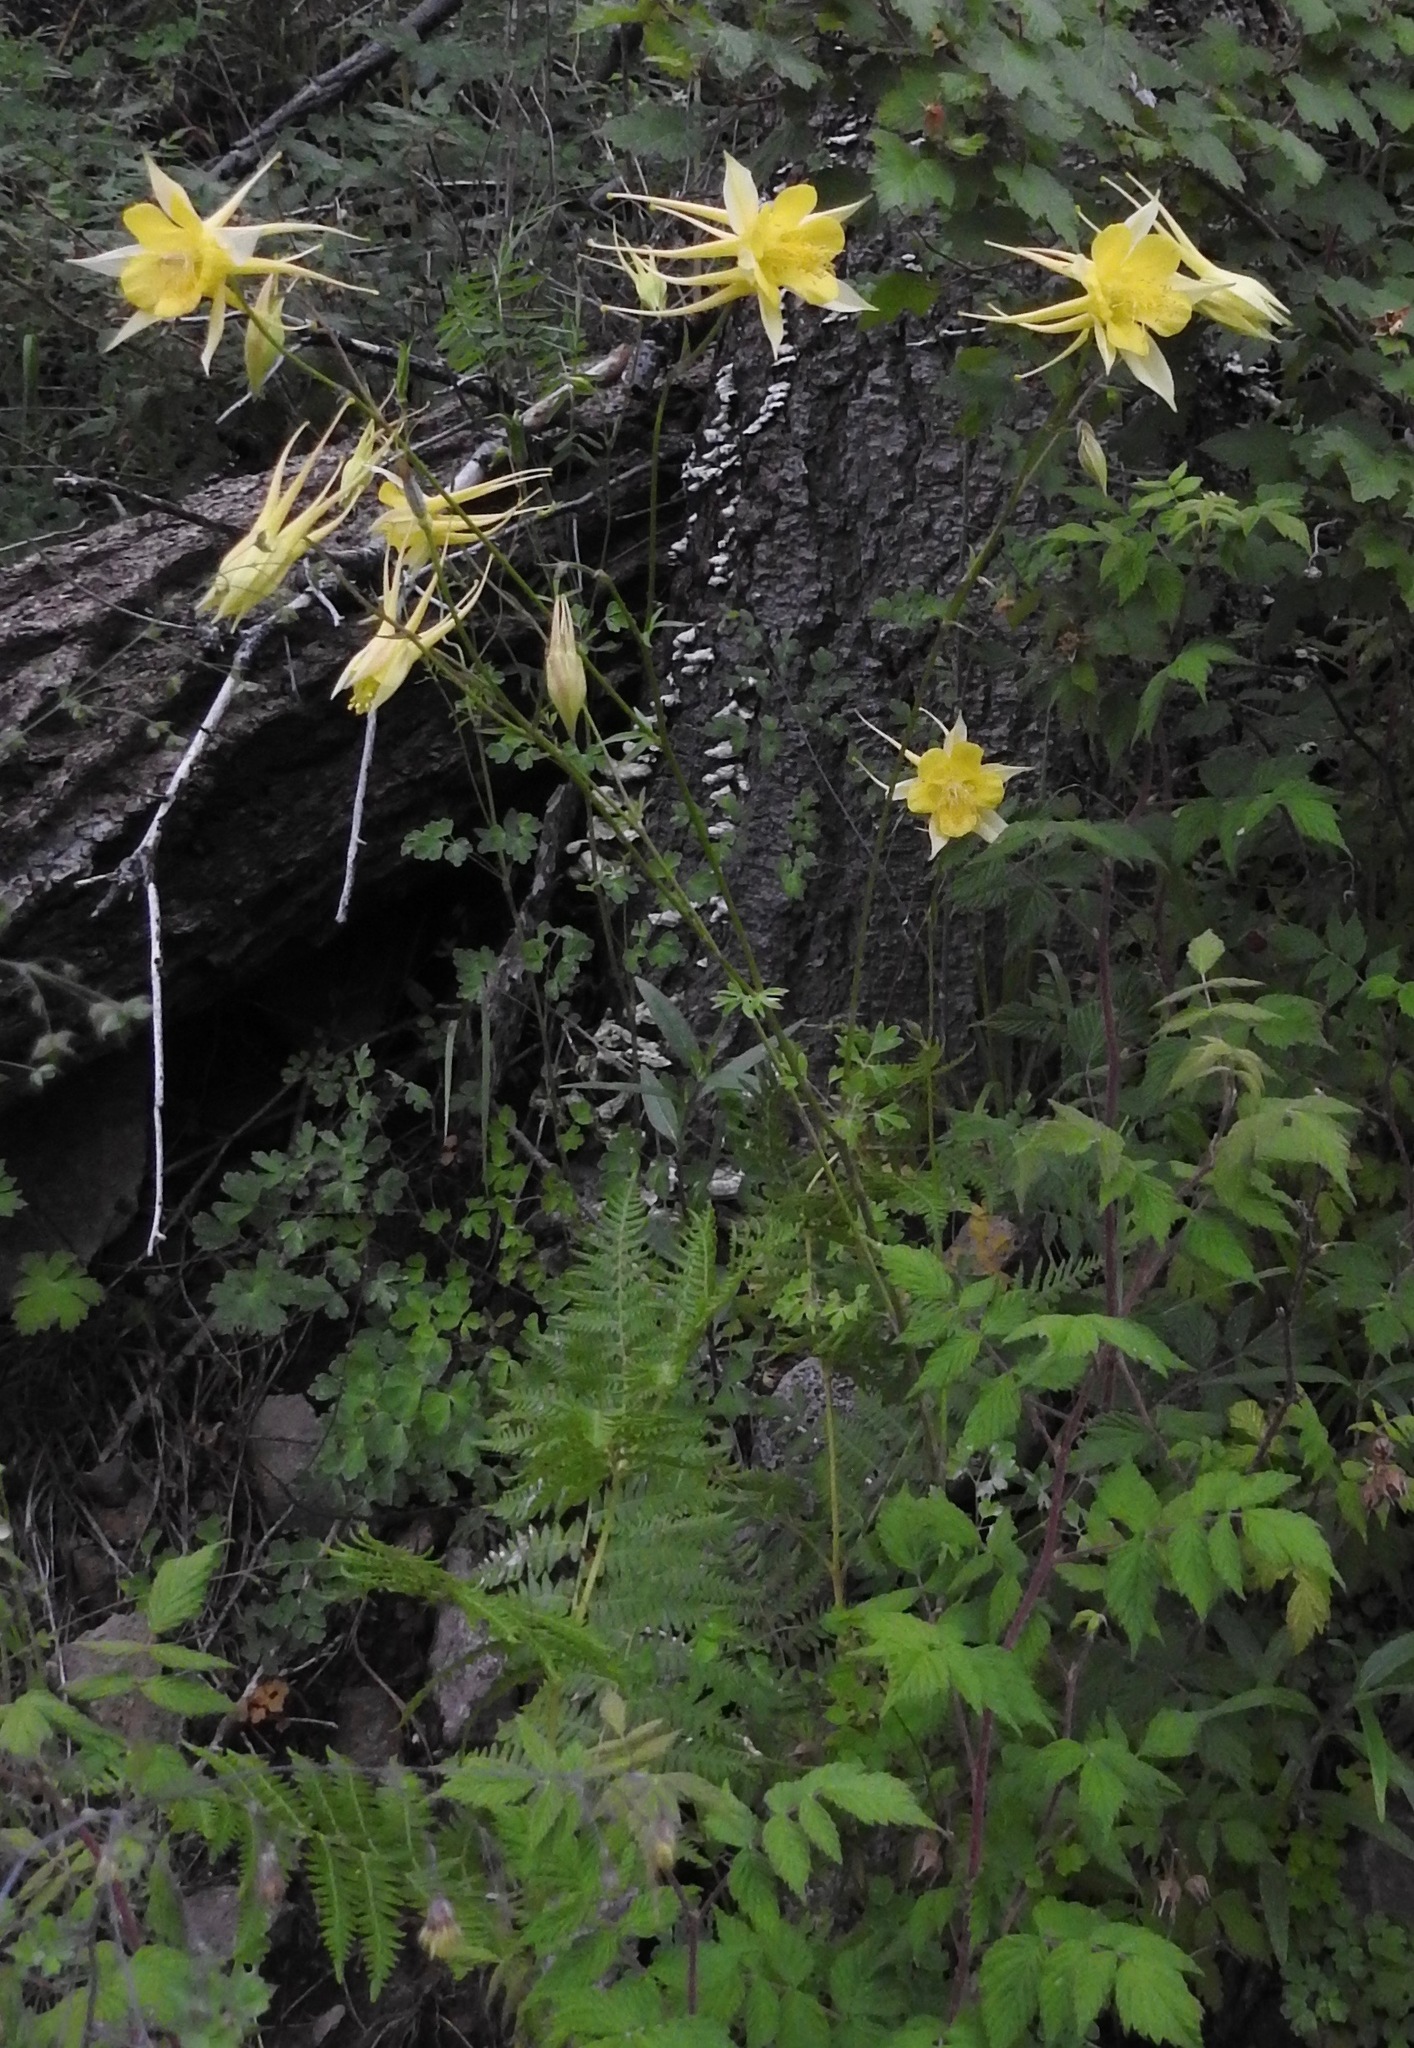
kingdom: Plantae
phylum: Tracheophyta
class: Magnoliopsida
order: Ranunculales
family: Ranunculaceae
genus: Aquilegia
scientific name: Aquilegia chrysantha
